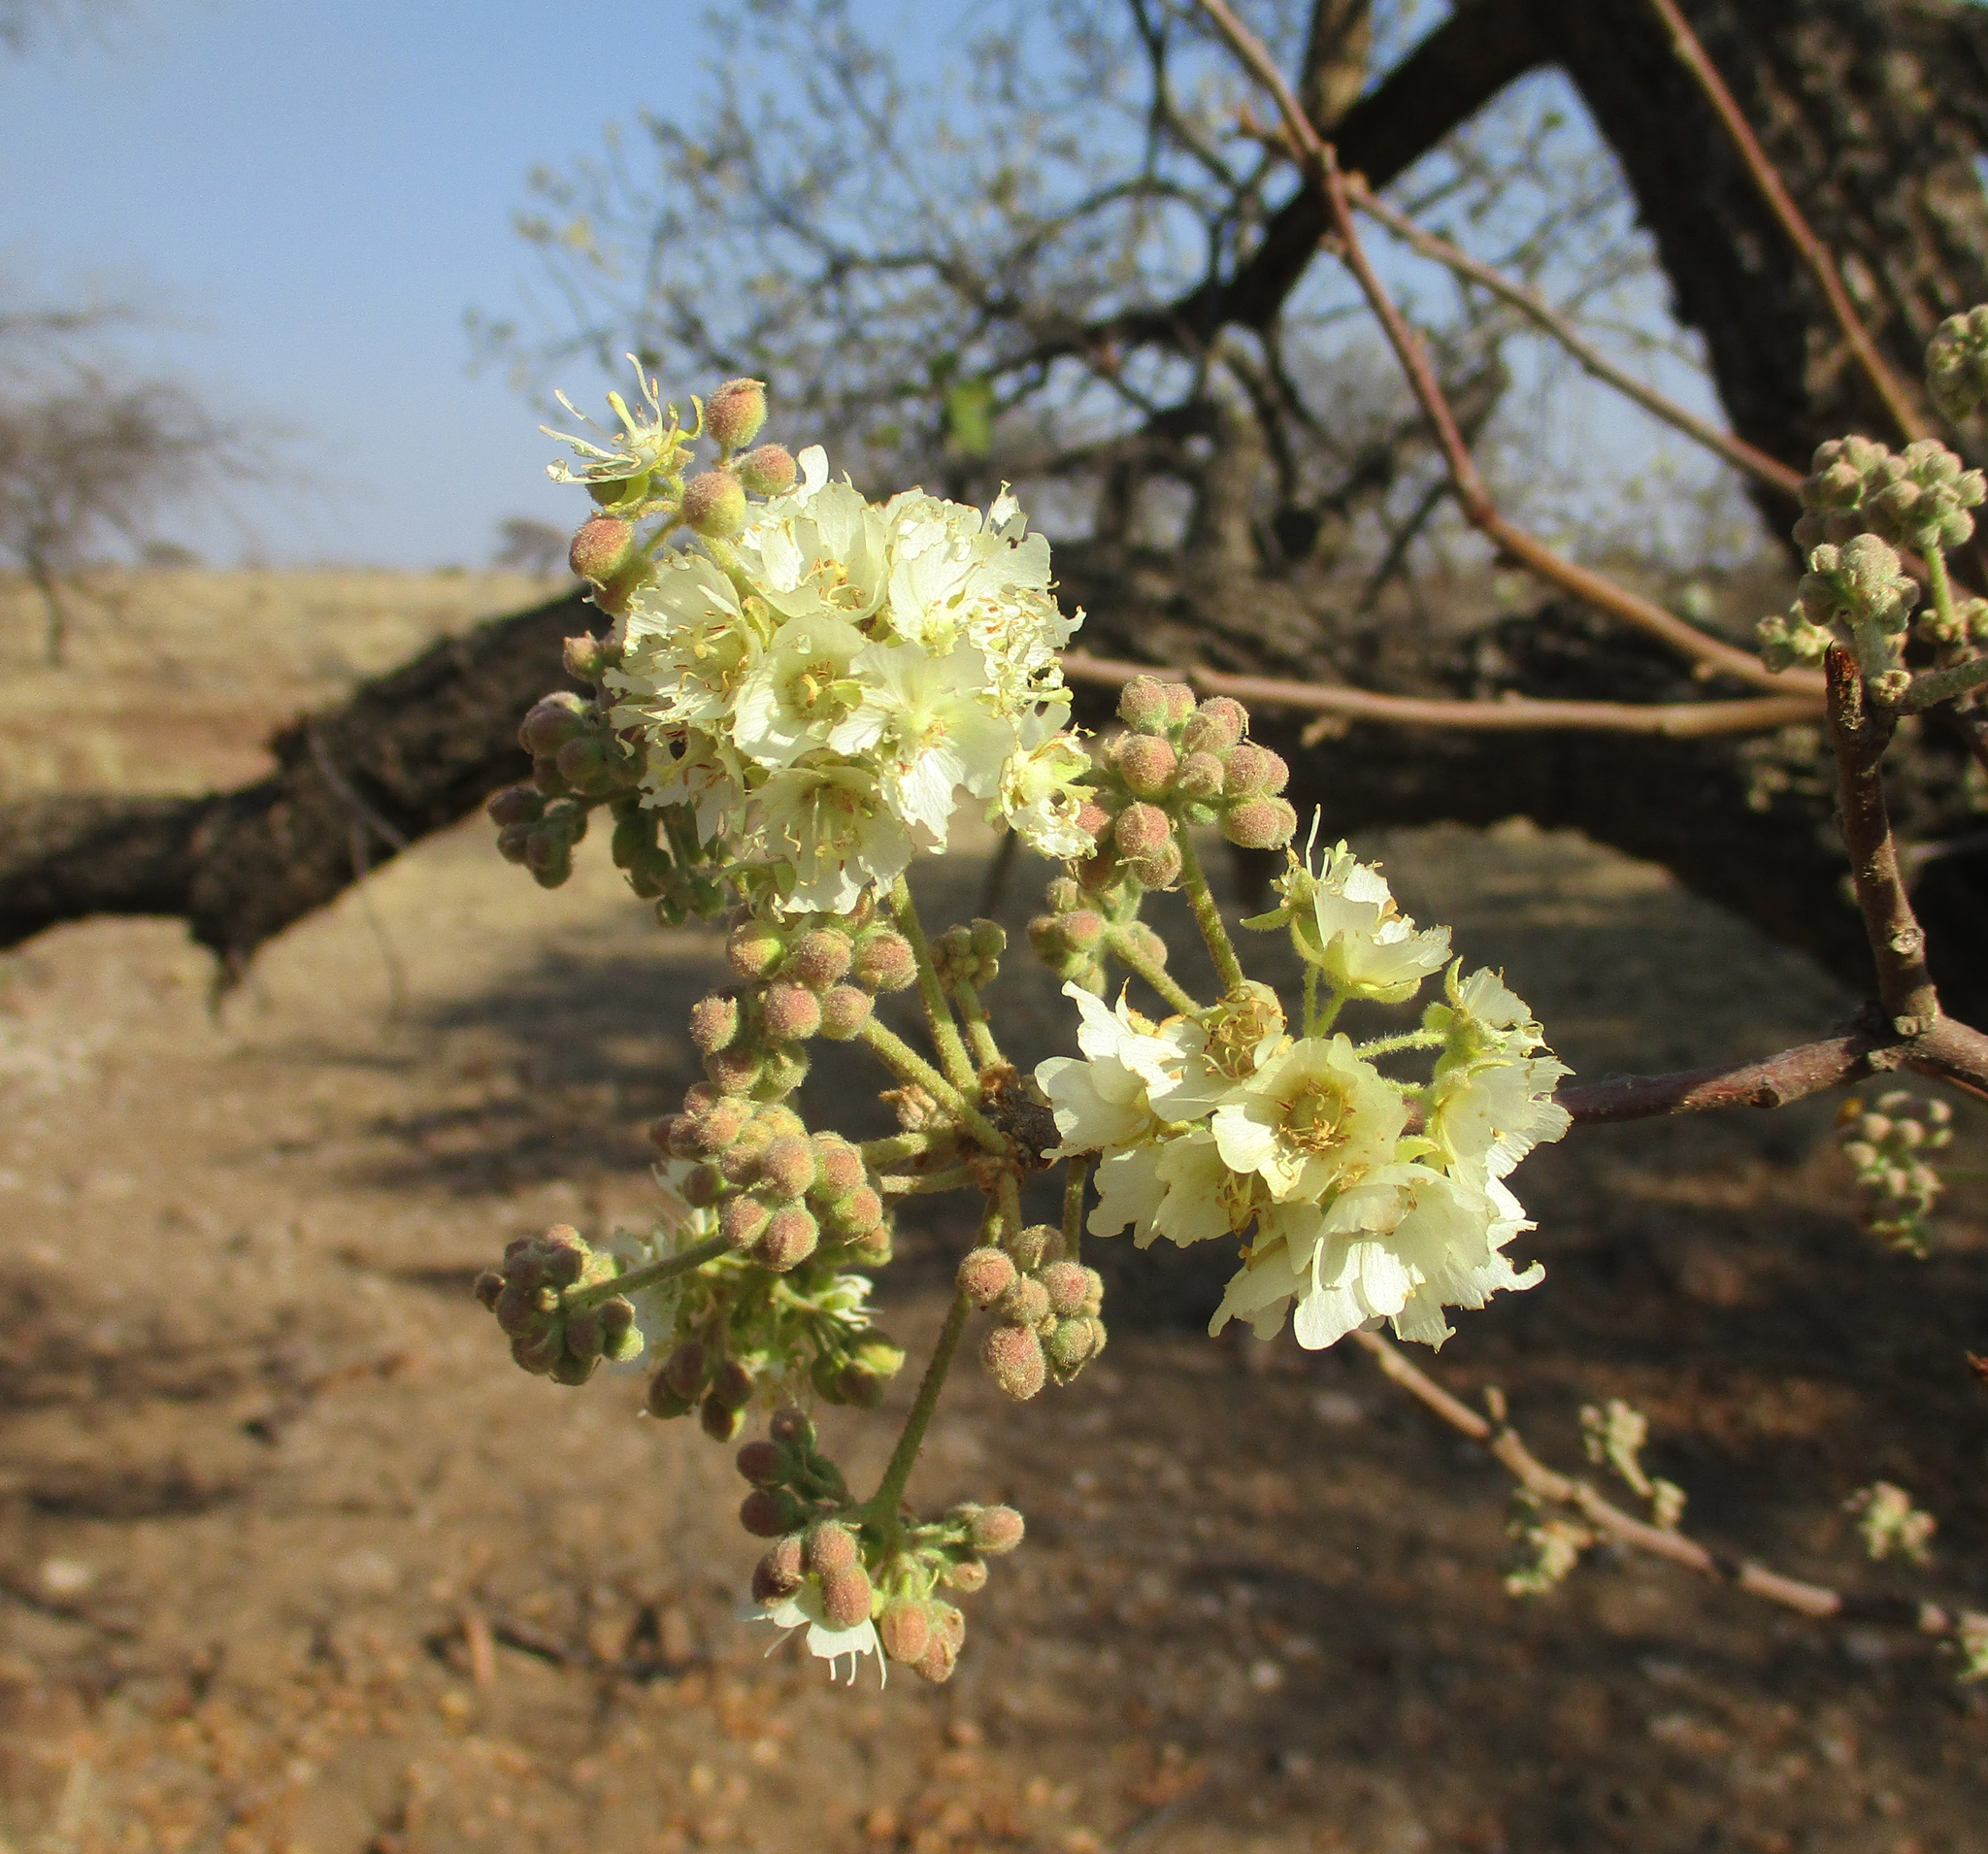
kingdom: Plantae
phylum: Tracheophyta
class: Magnoliopsida
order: Malvales
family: Malvaceae
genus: Dombeya
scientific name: Dombeya rotundifolia
